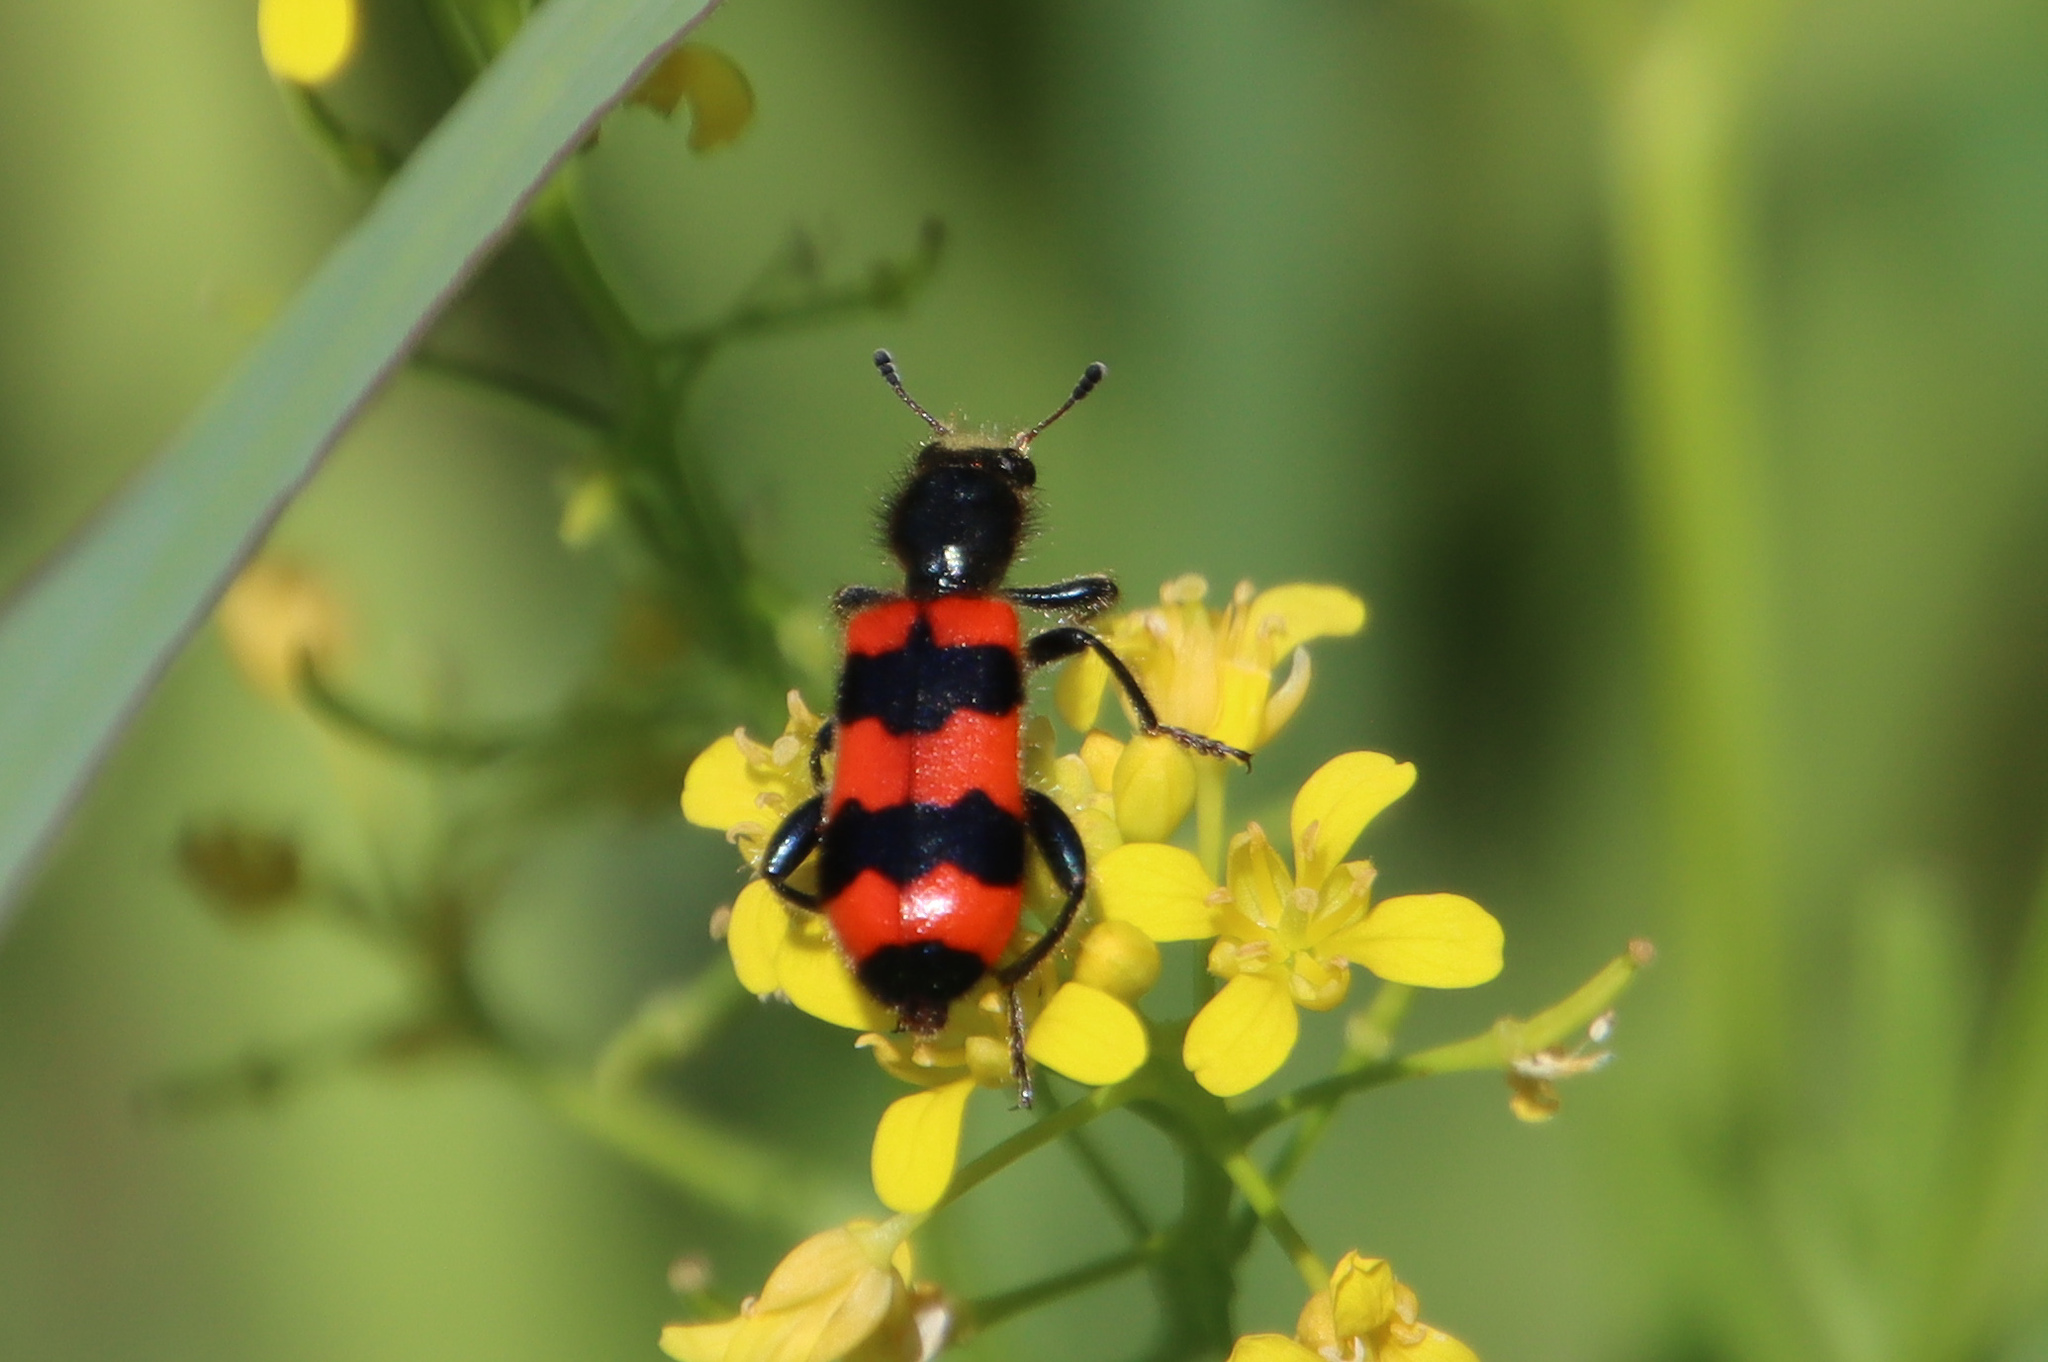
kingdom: Animalia
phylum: Arthropoda
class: Insecta
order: Coleoptera
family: Cleridae
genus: Trichodes
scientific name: Trichodes apiarius
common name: Bee-eating beetle
